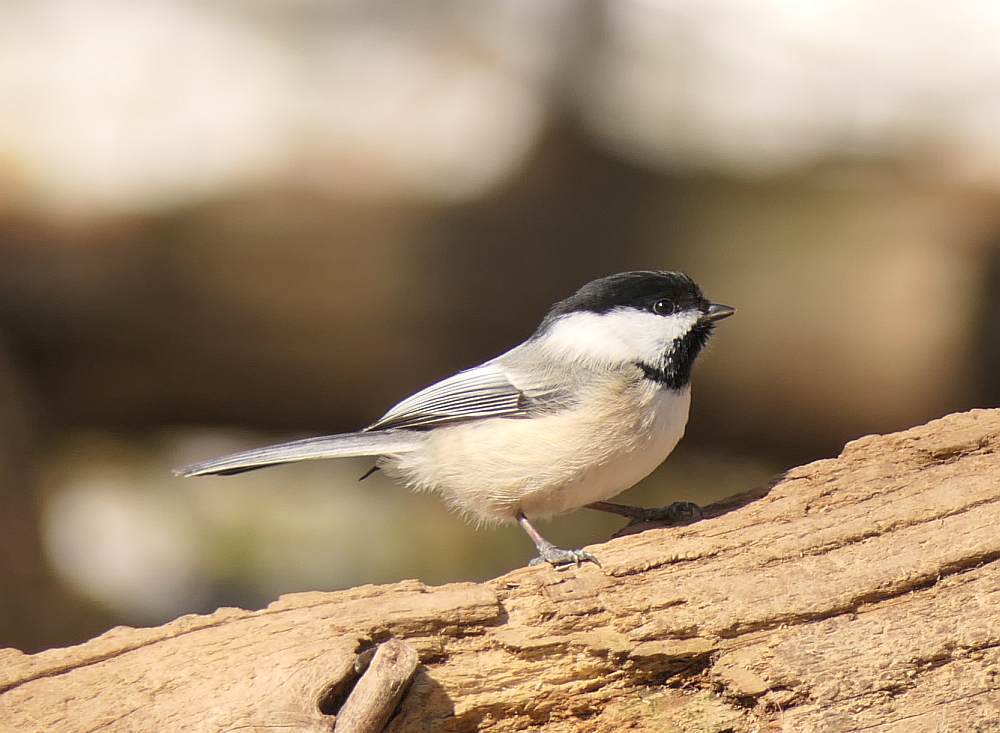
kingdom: Animalia
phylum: Chordata
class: Aves
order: Passeriformes
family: Paridae
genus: Poecile
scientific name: Poecile atricapillus
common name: Black-capped chickadee
